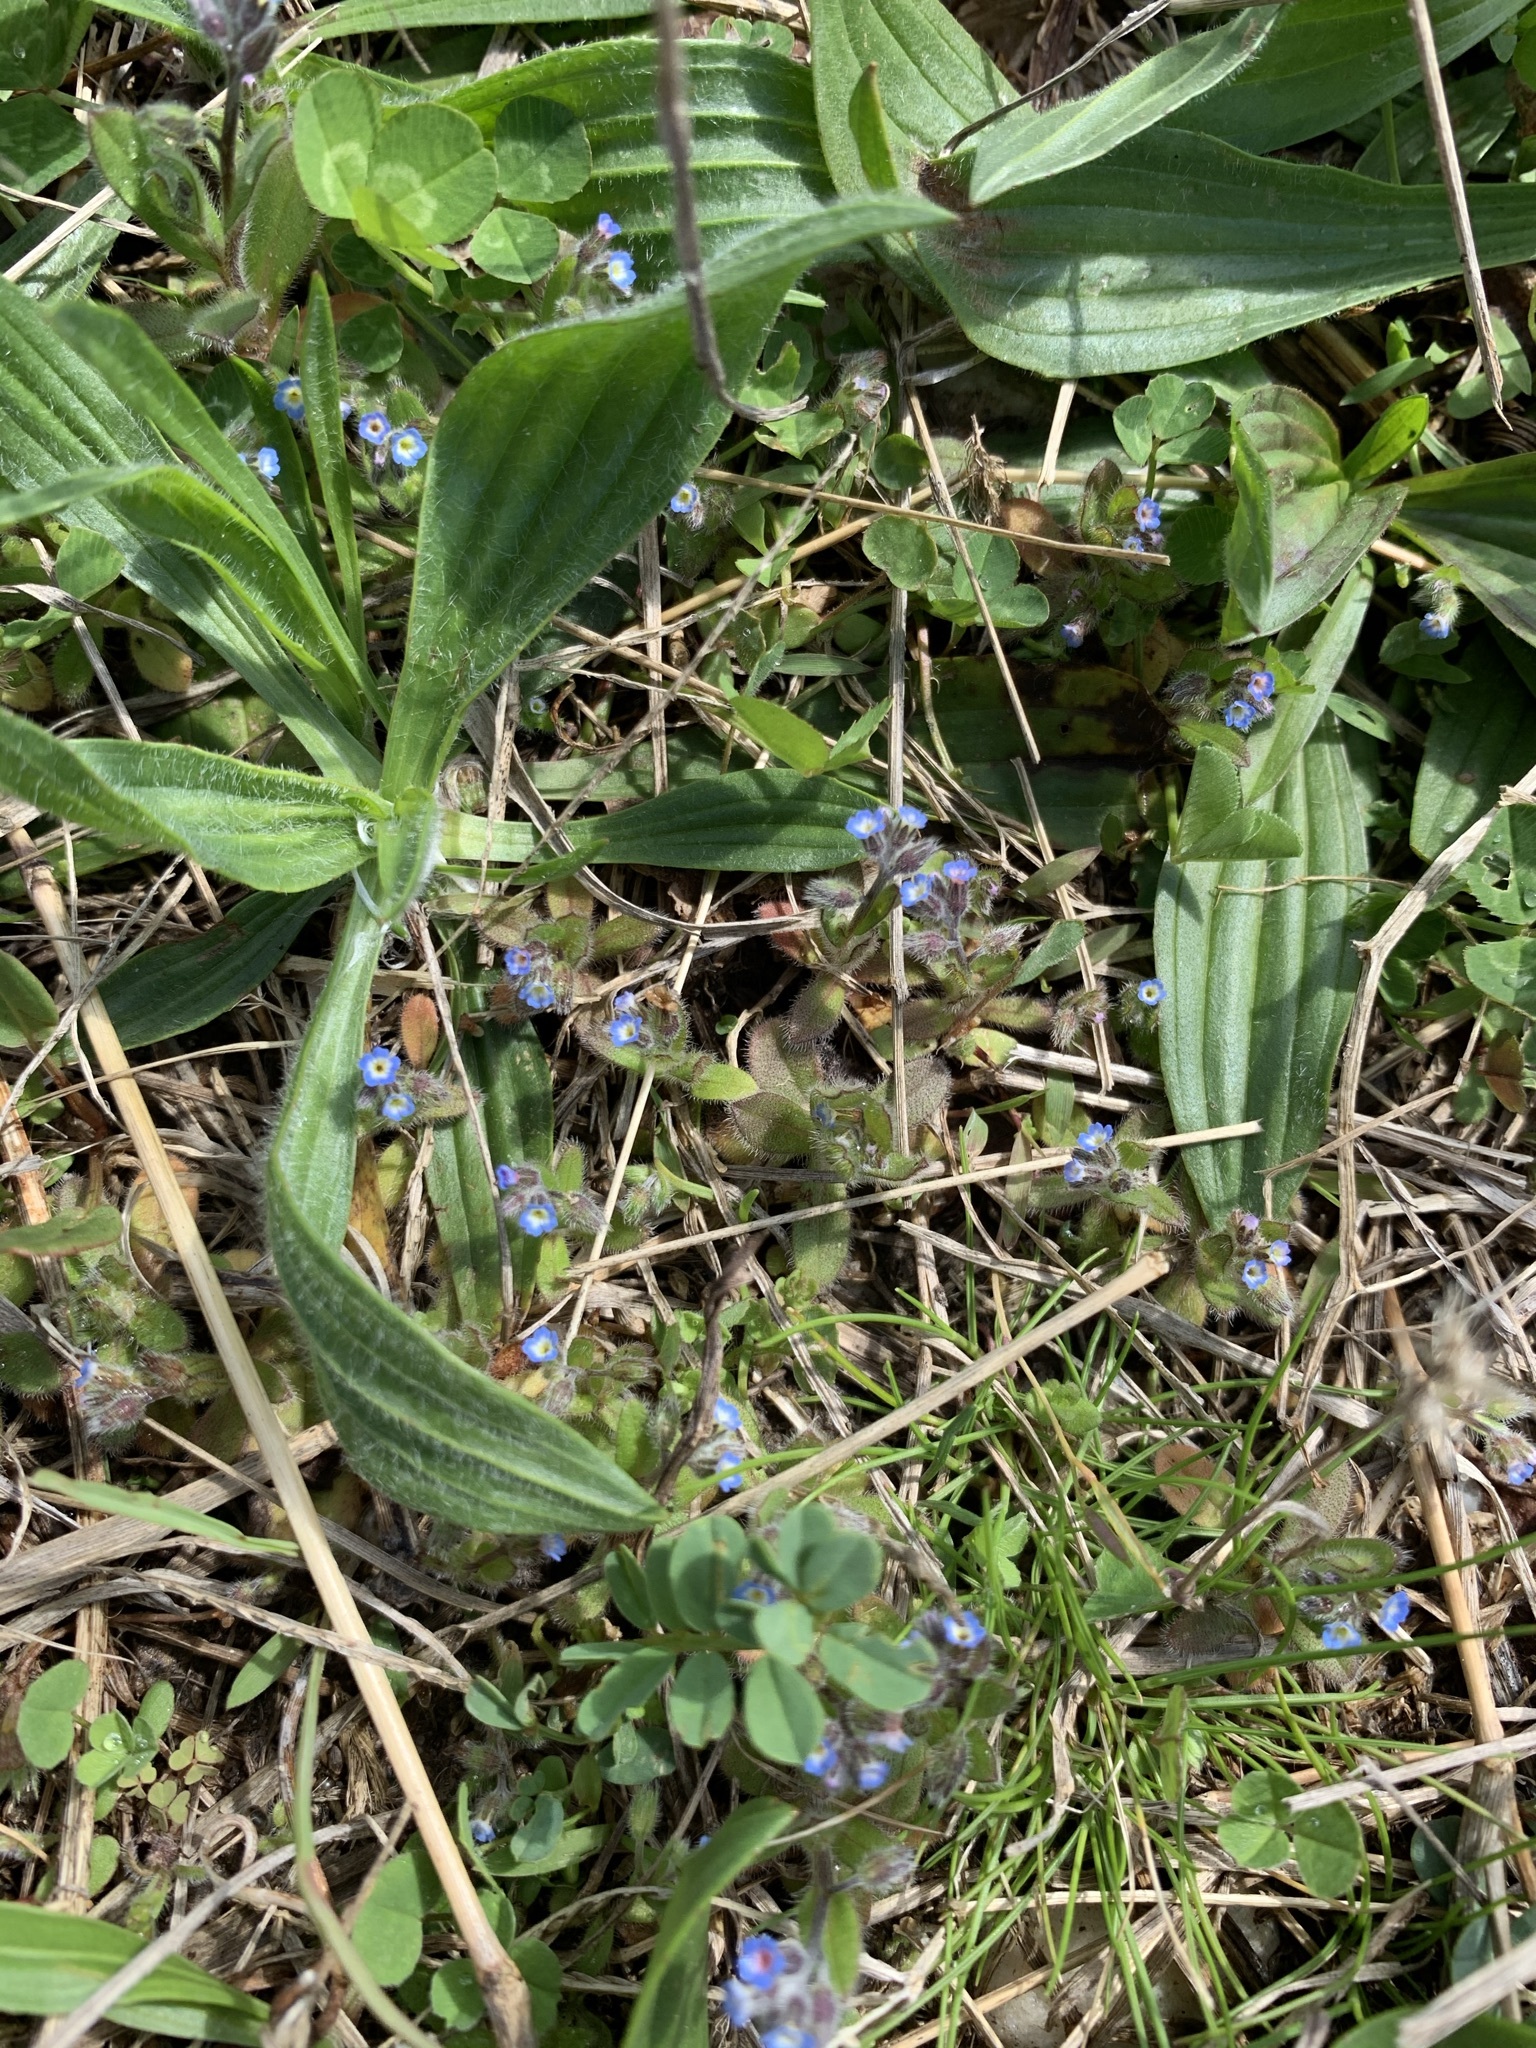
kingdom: Plantae
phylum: Tracheophyta
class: Magnoliopsida
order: Boraginales
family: Boraginaceae
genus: Myosotis
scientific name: Myosotis ramosissima
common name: Early forget-me-not
